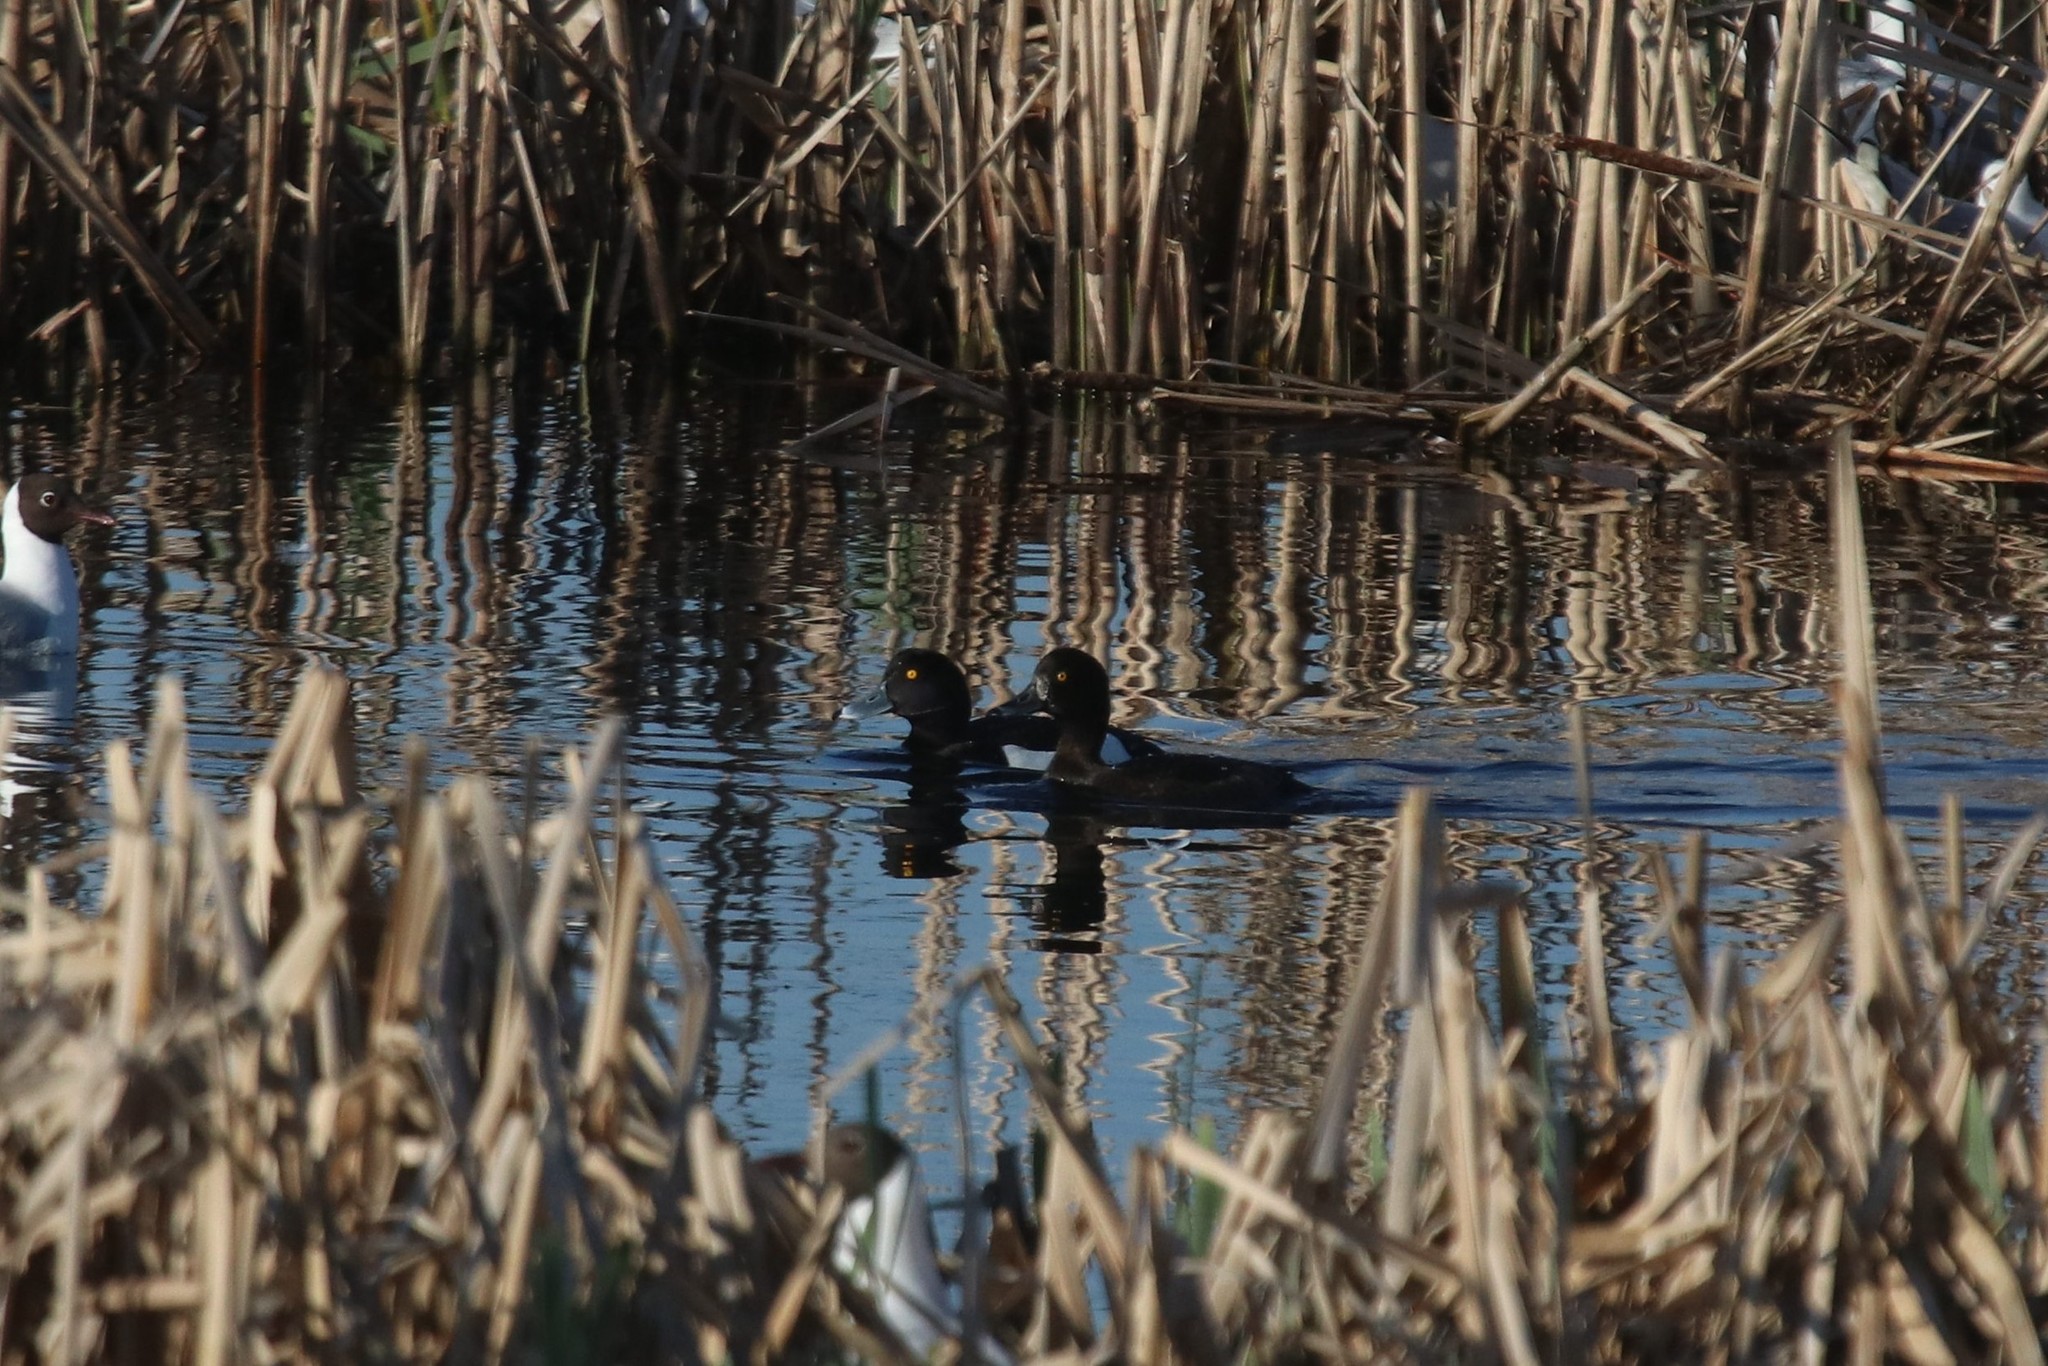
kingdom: Animalia
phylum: Chordata
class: Aves
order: Anseriformes
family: Anatidae
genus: Aythya
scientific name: Aythya fuligula
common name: Tufted duck
